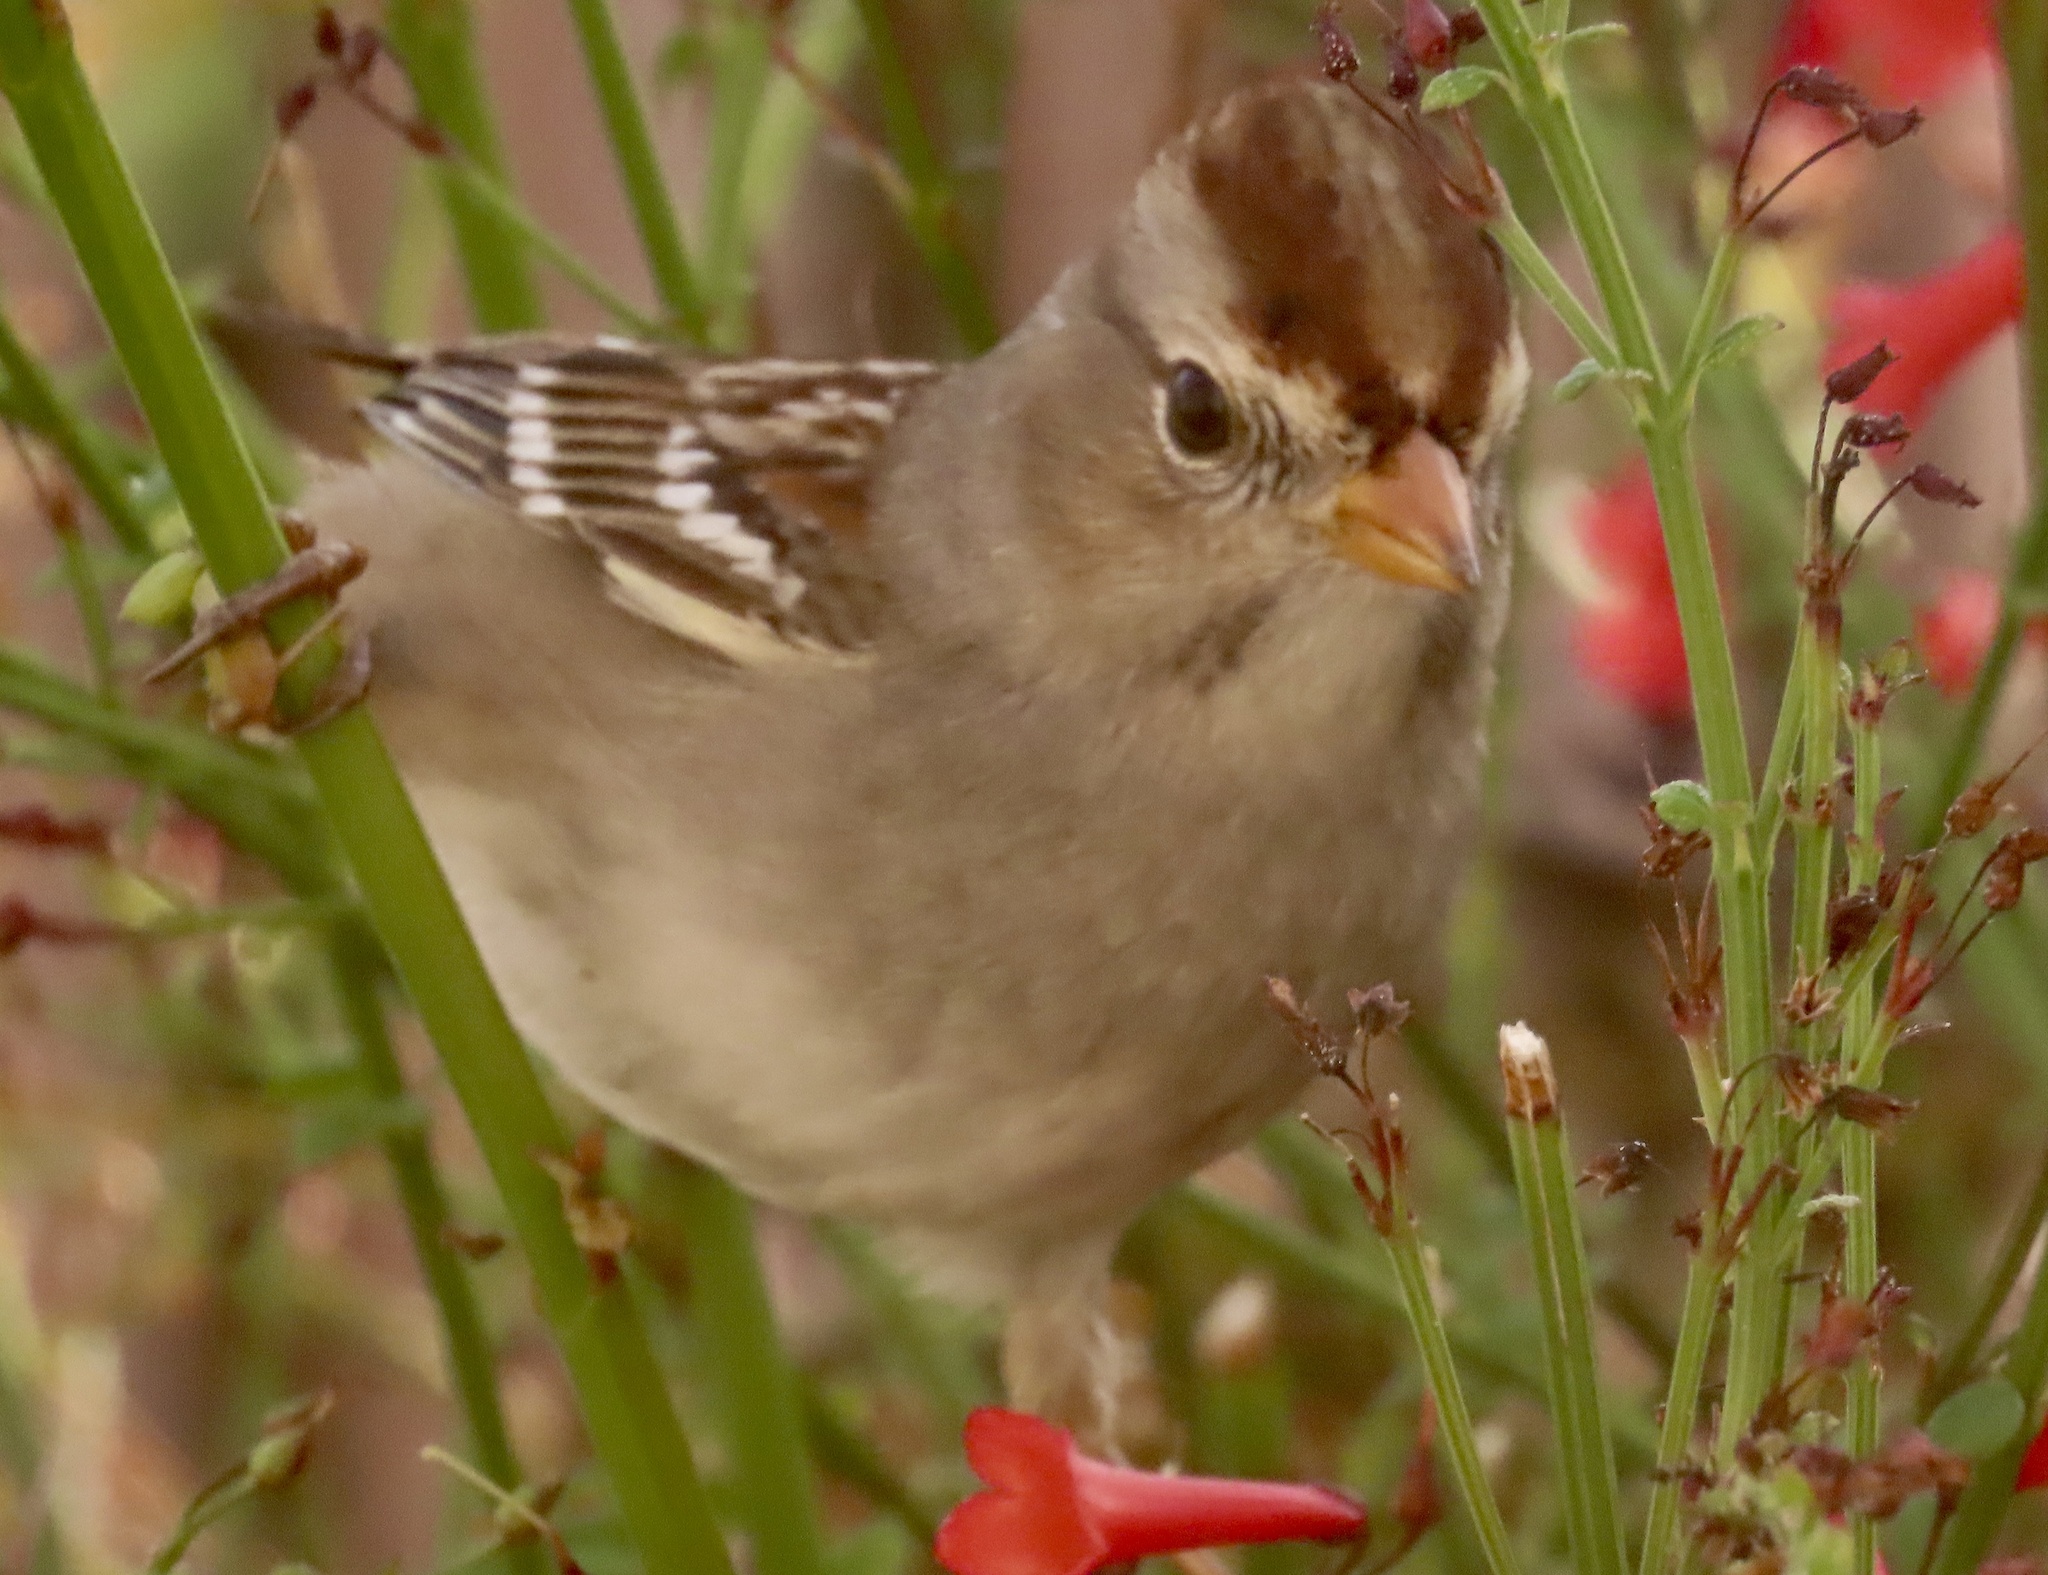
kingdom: Animalia
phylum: Chordata
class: Aves
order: Passeriformes
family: Passerellidae
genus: Zonotrichia
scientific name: Zonotrichia leucophrys
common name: White-crowned sparrow
